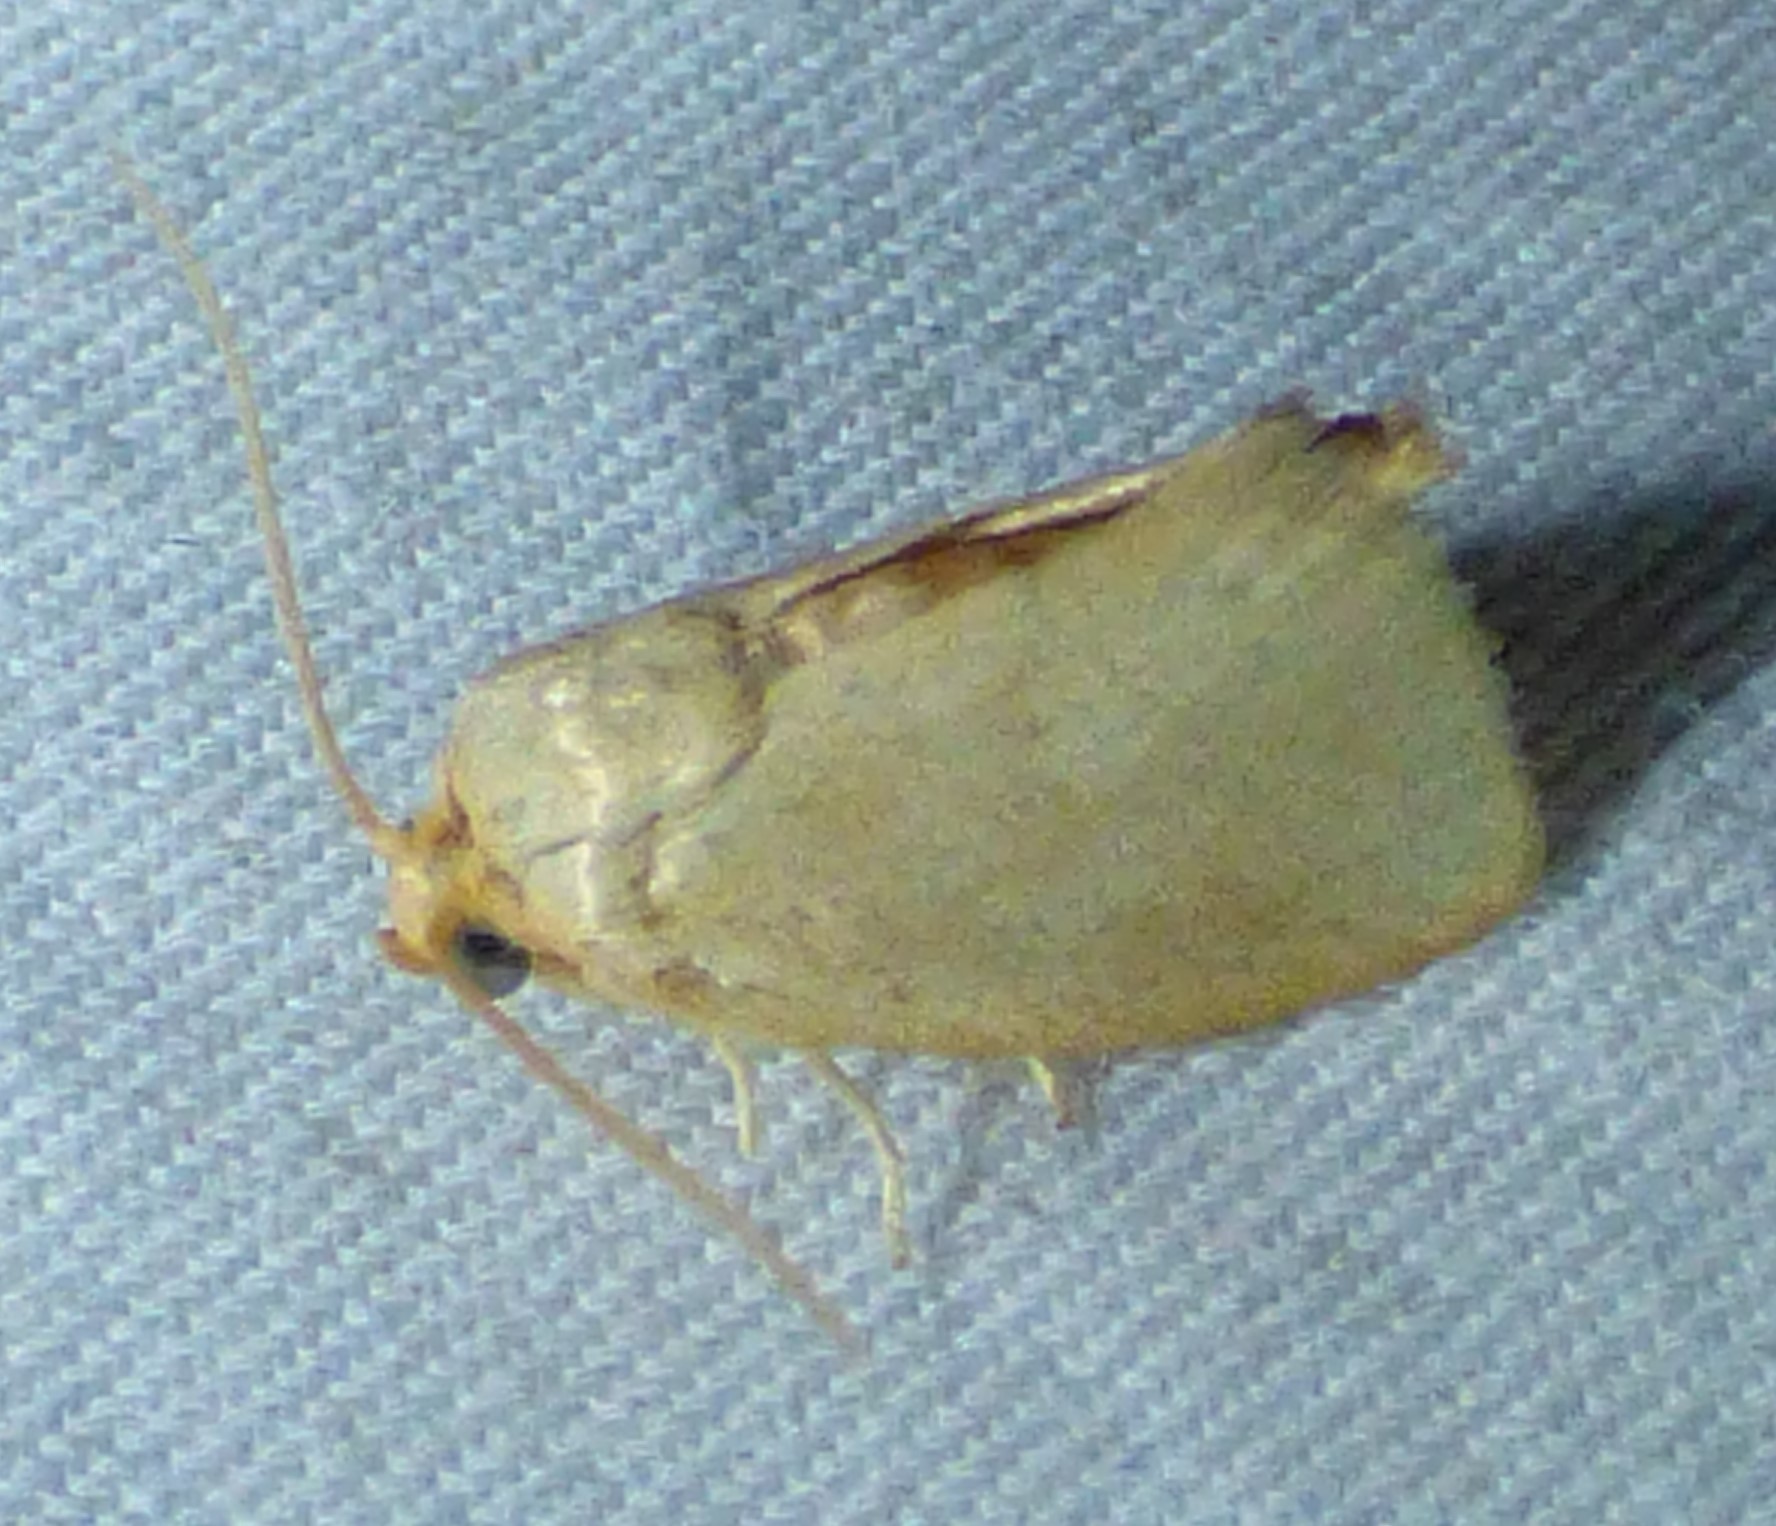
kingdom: Animalia
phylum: Arthropoda
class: Insecta
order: Lepidoptera
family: Limacodidae
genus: Tortricidia
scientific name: Tortricidia pallida
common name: Red-crossed button slug moth
